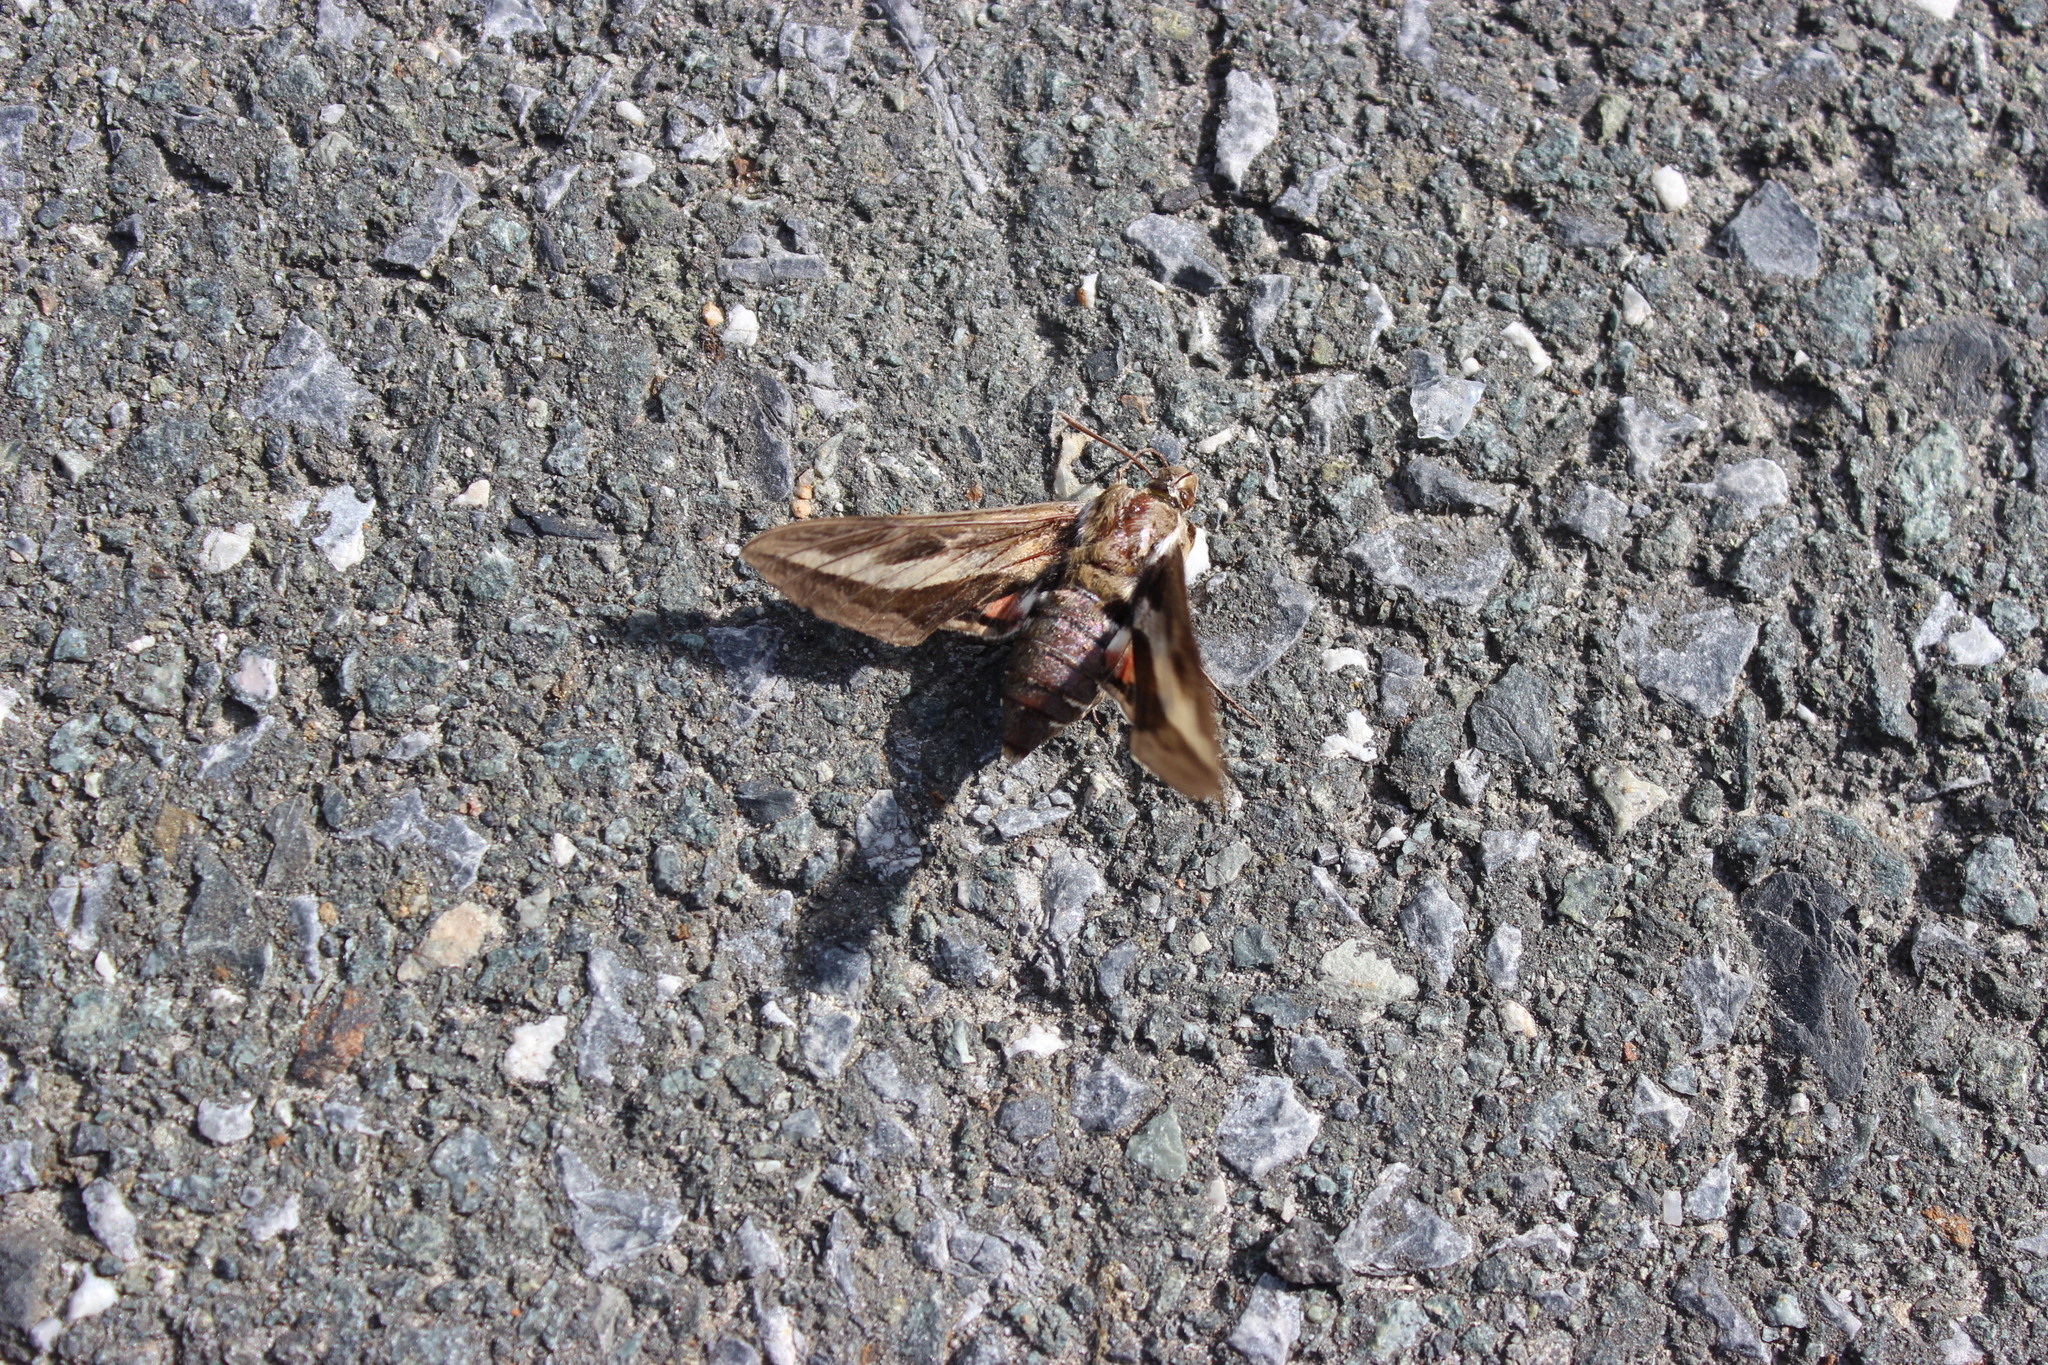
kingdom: Animalia
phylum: Arthropoda
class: Insecta
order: Lepidoptera
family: Sphingidae
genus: Hyles
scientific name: Hyles gallii
